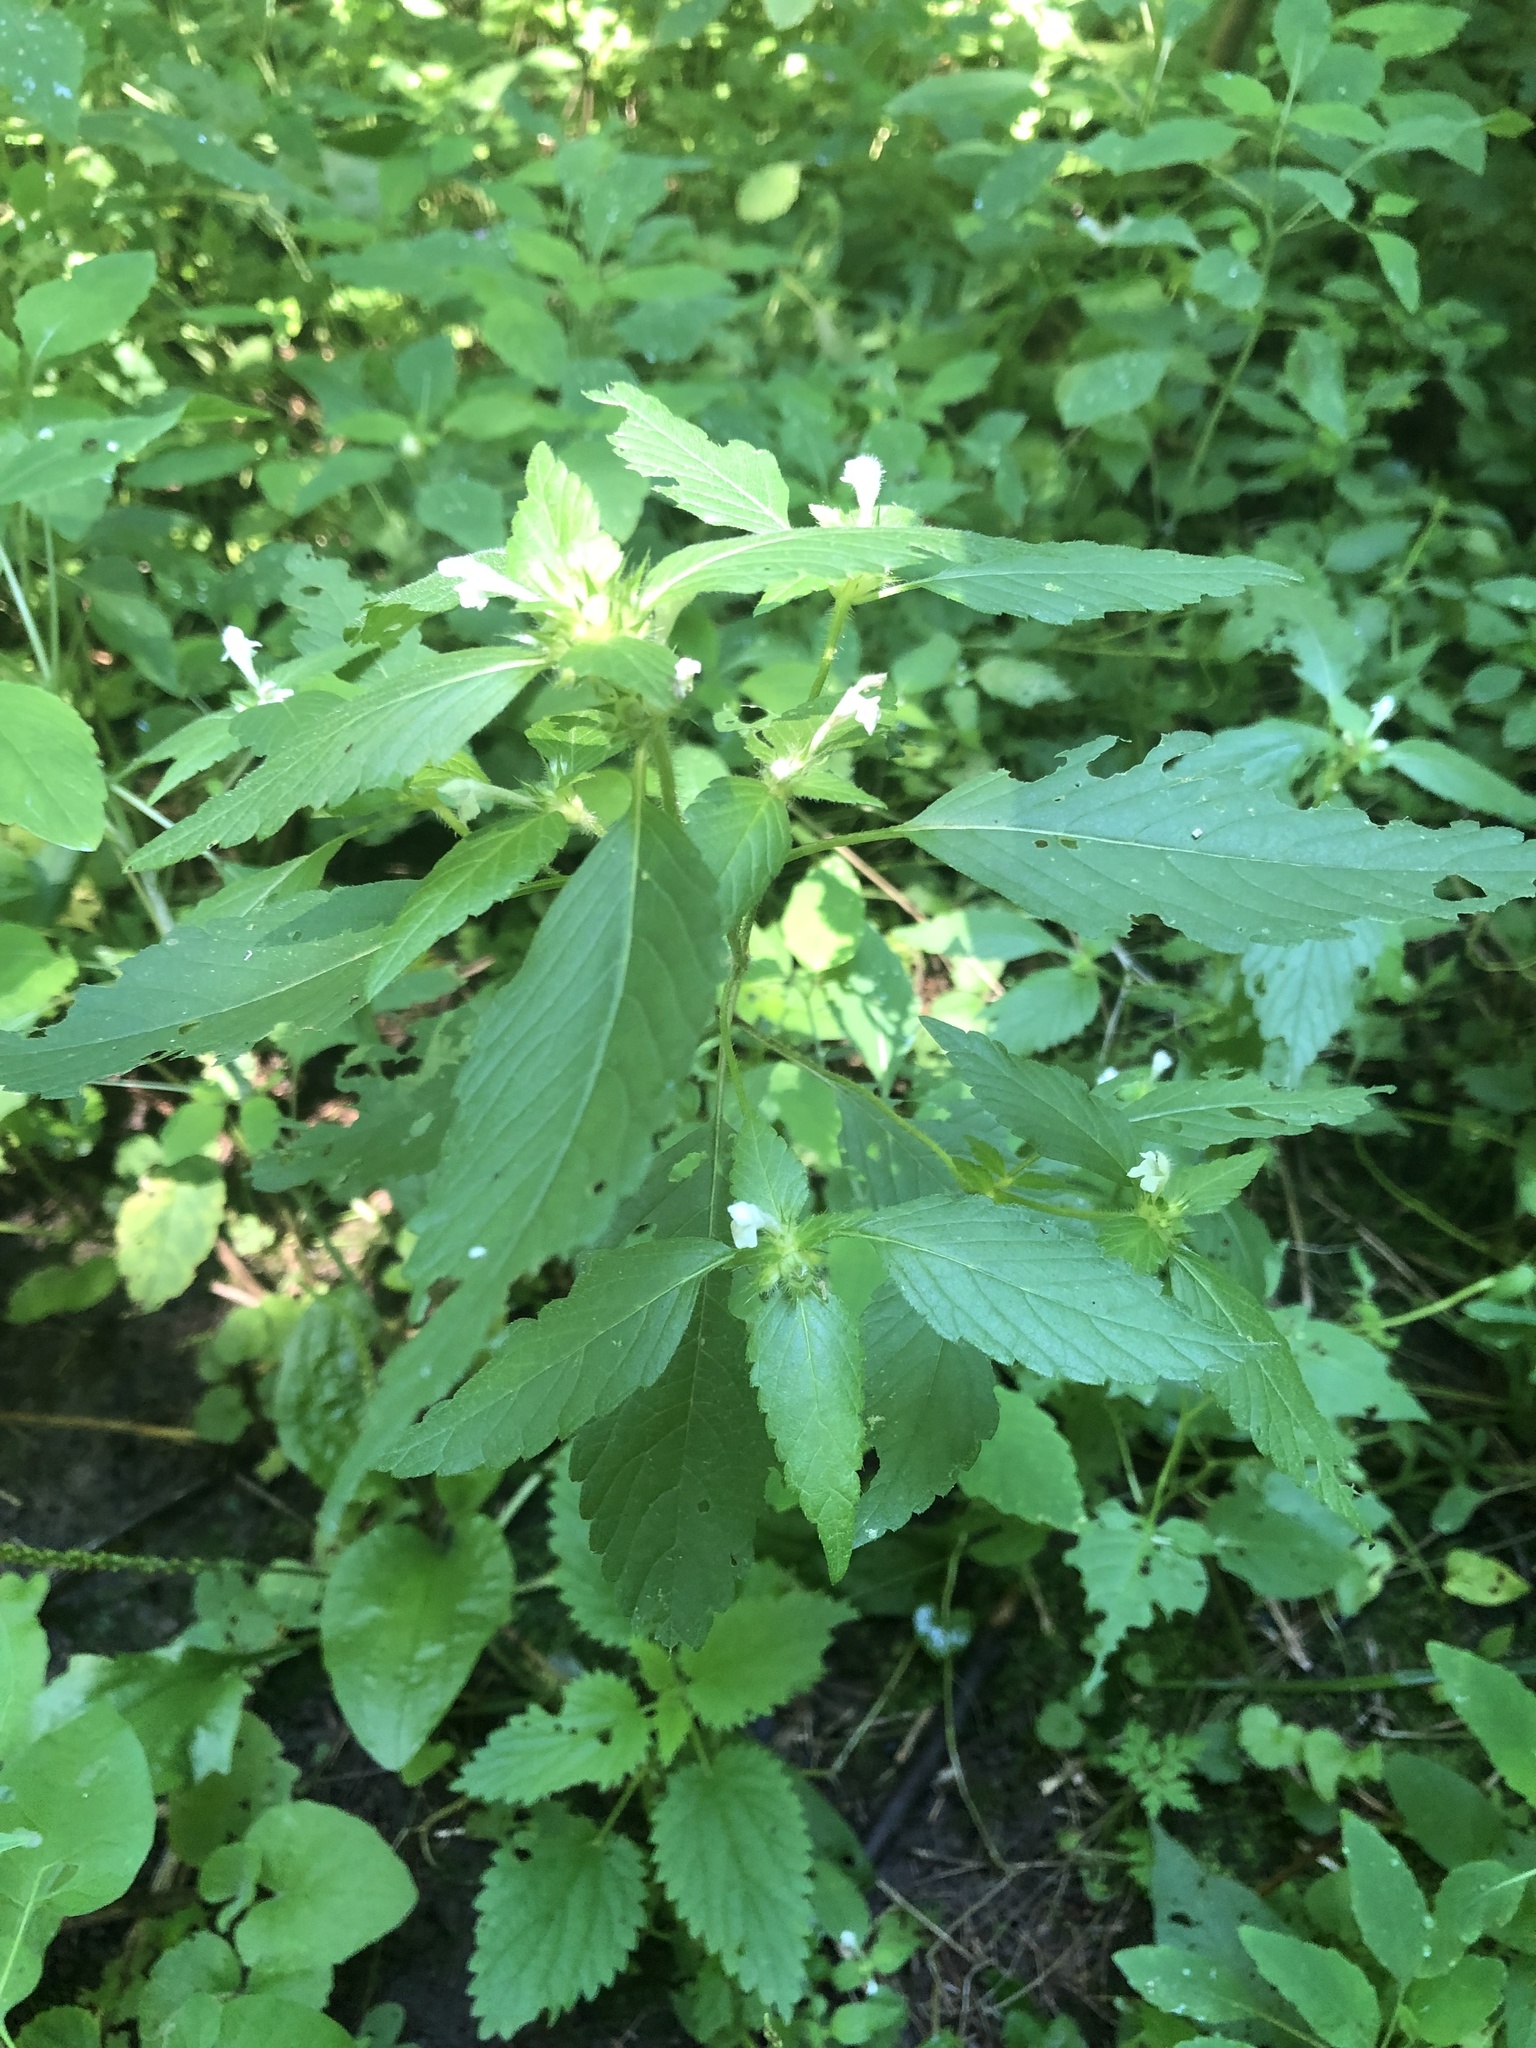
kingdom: Plantae
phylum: Tracheophyta
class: Magnoliopsida
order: Lamiales
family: Lamiaceae
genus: Galeopsis
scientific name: Galeopsis tetrahit
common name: Common hemp-nettle
